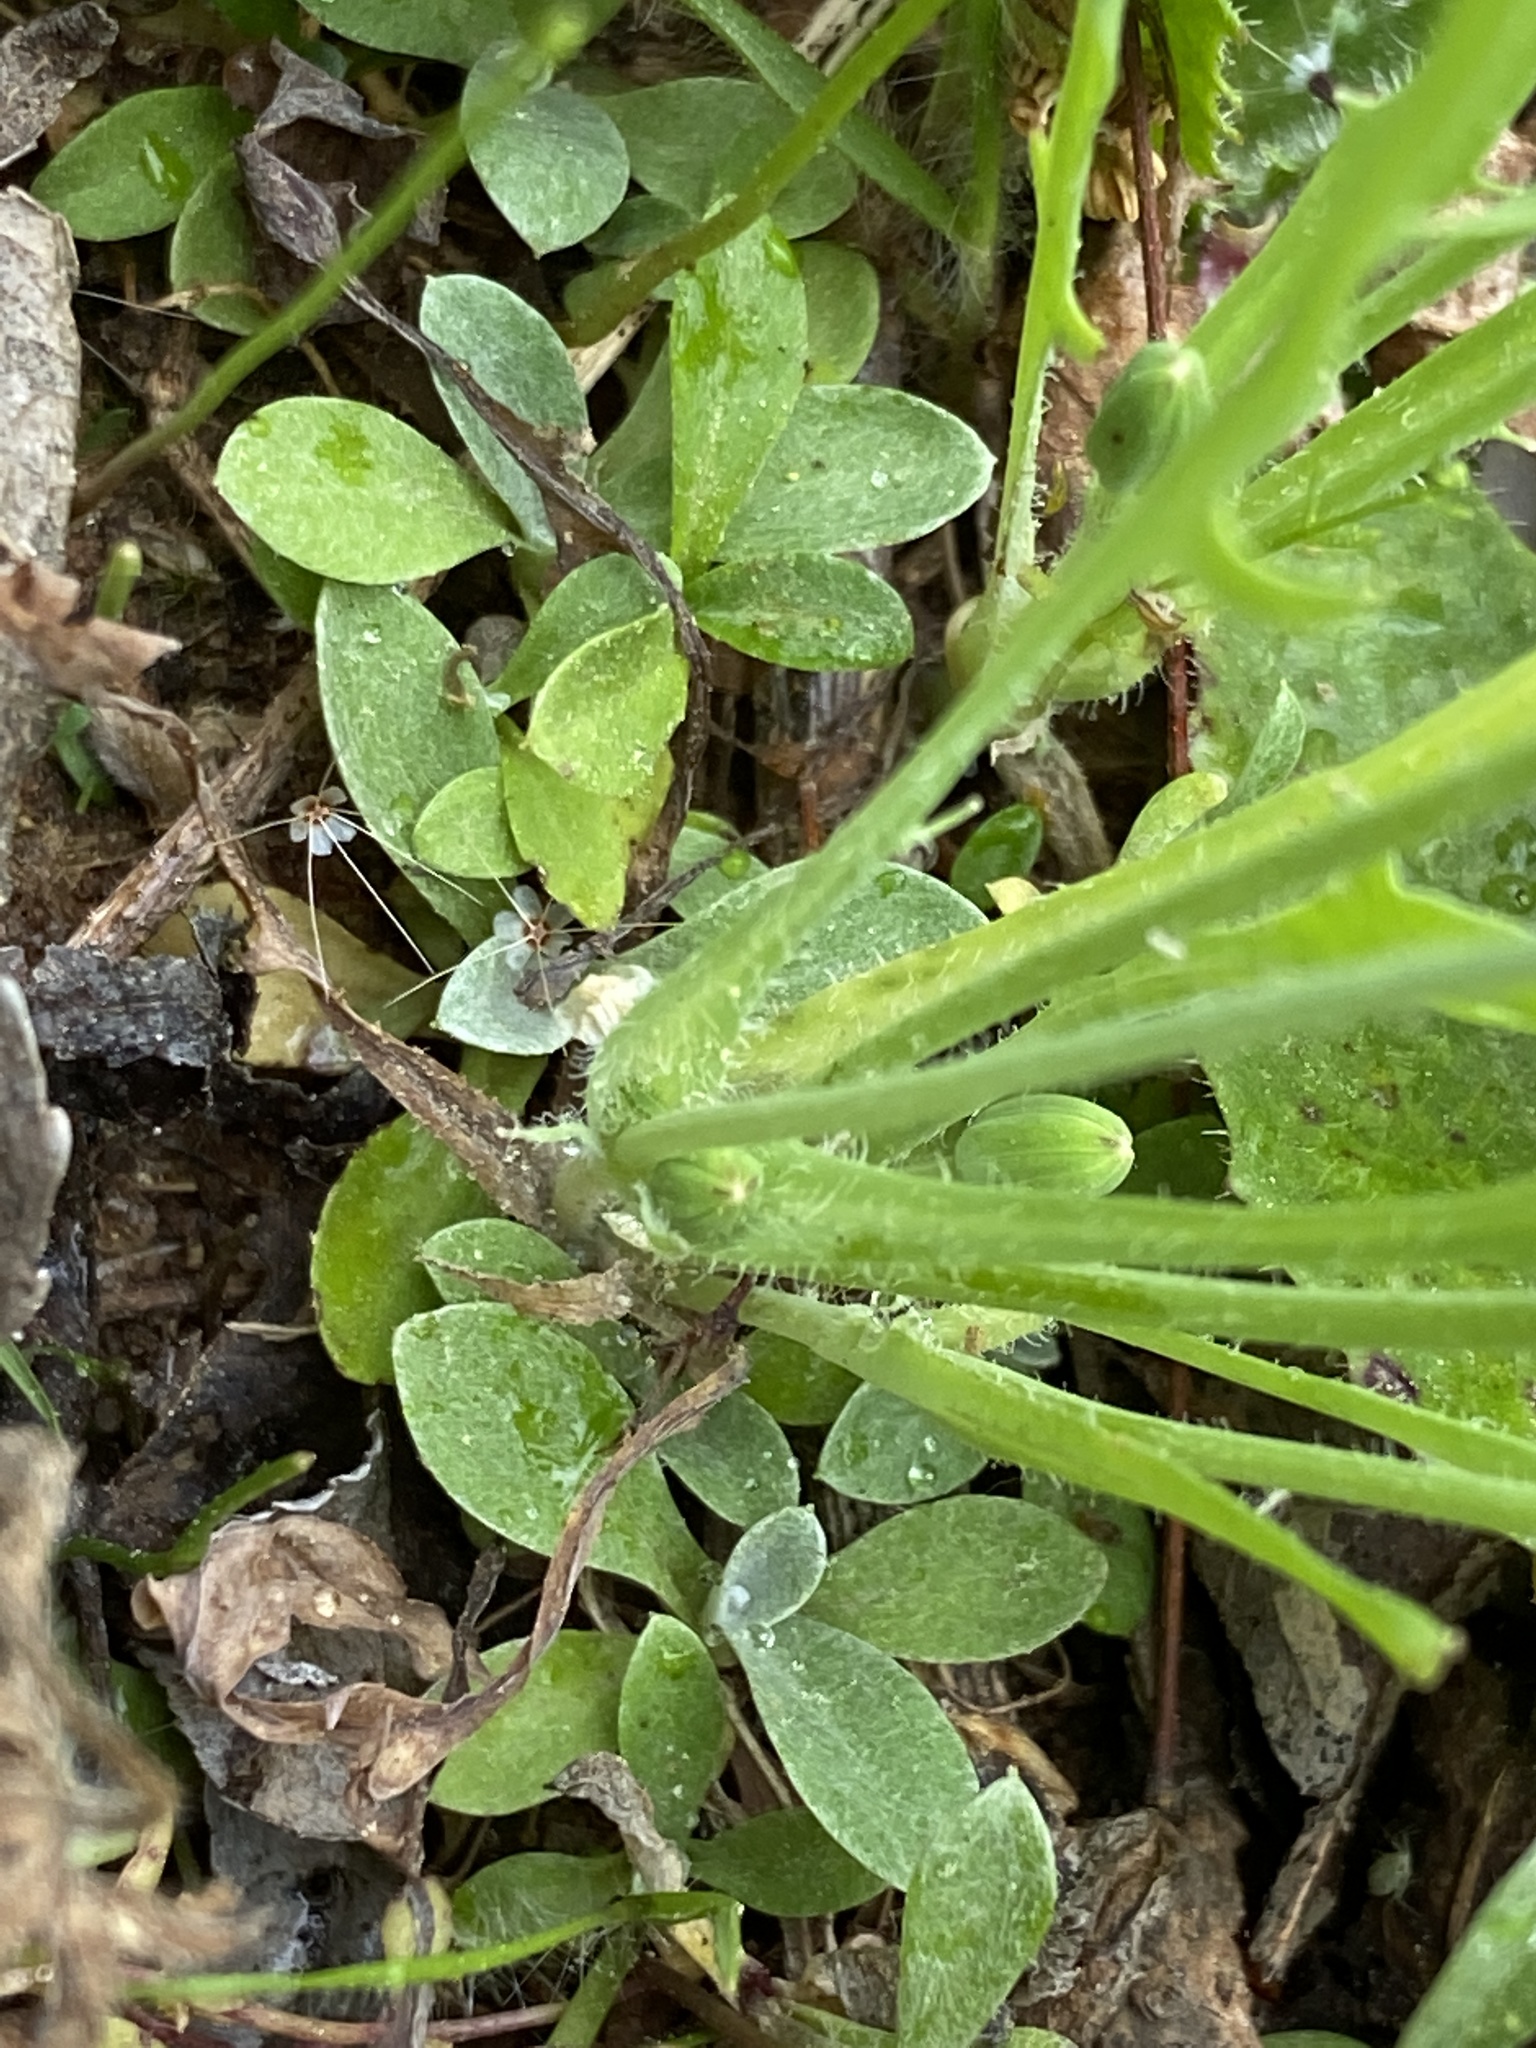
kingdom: Plantae
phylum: Tracheophyta
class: Magnoliopsida
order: Asterales
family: Asteraceae
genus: Krigia
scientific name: Krigia virginica
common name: Virginia dwarf-dandelion
